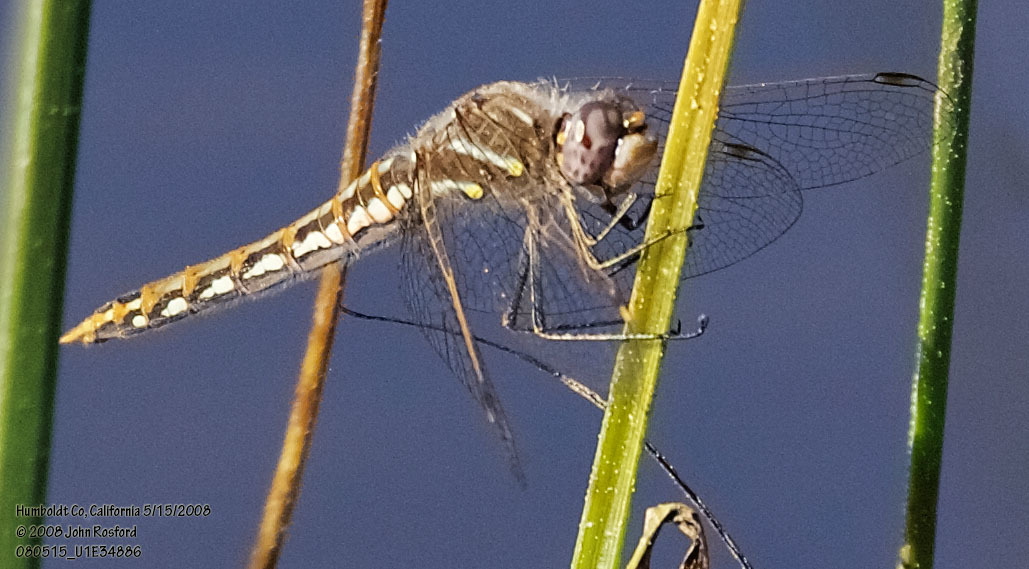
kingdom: Animalia
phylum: Arthropoda
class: Insecta
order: Odonata
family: Libellulidae
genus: Sympetrum
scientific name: Sympetrum corruptum
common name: Variegated meadowhawk
